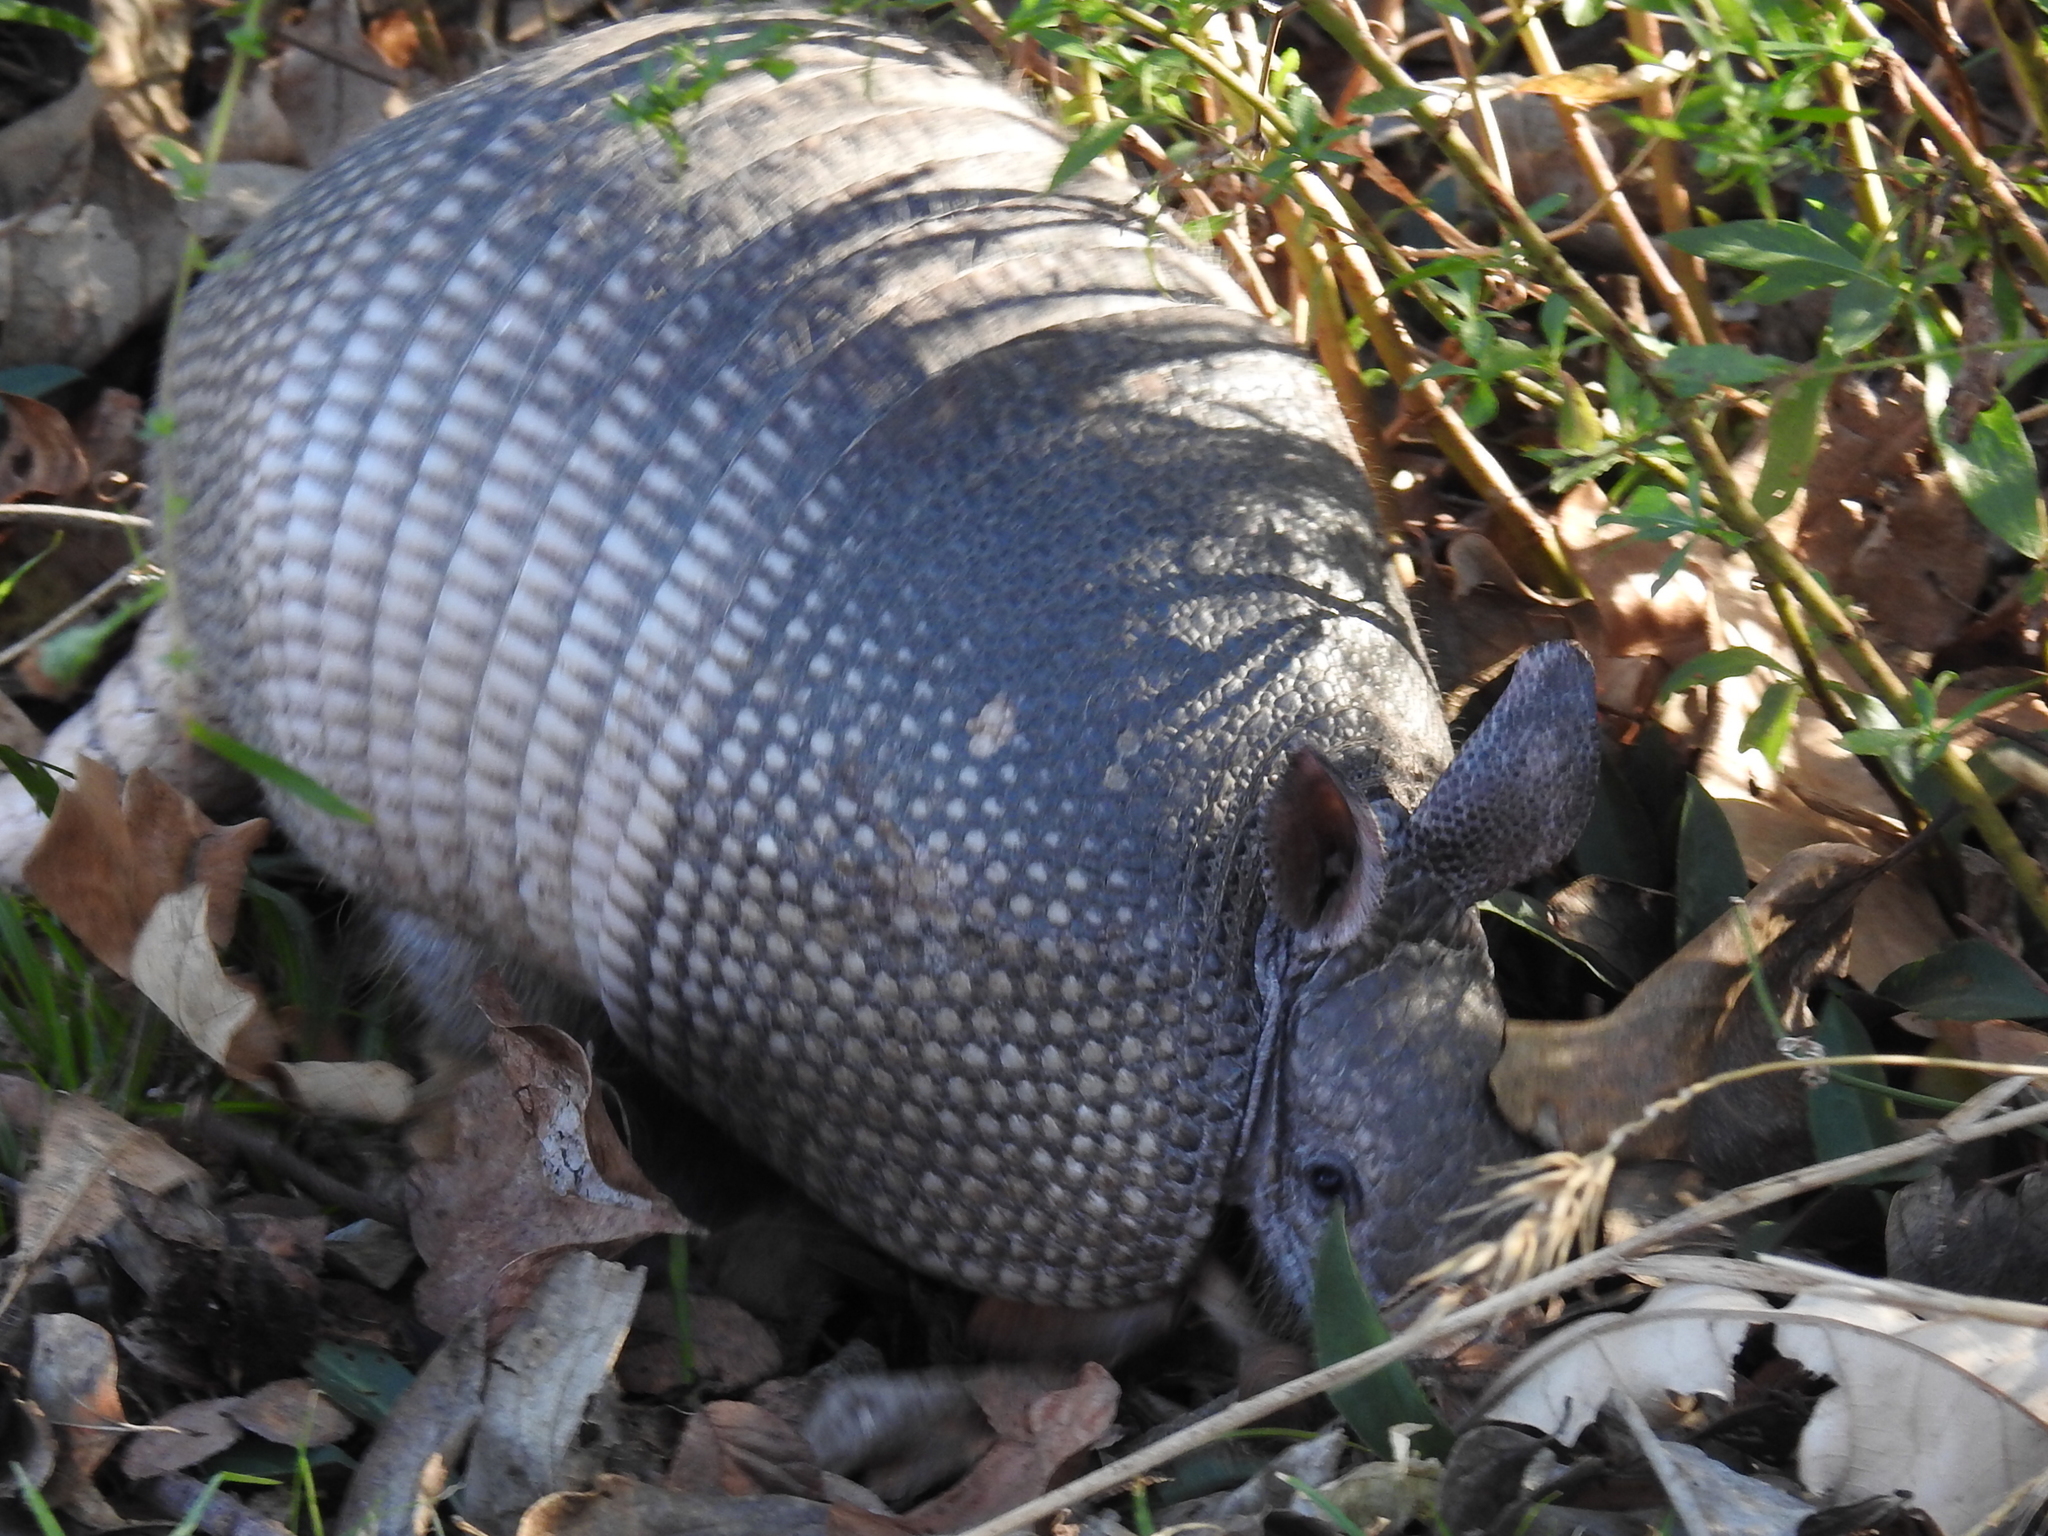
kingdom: Animalia
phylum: Chordata
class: Mammalia
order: Cingulata
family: Dasypodidae
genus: Dasypus
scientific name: Dasypus novemcinctus
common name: Nine-banded armadillo
